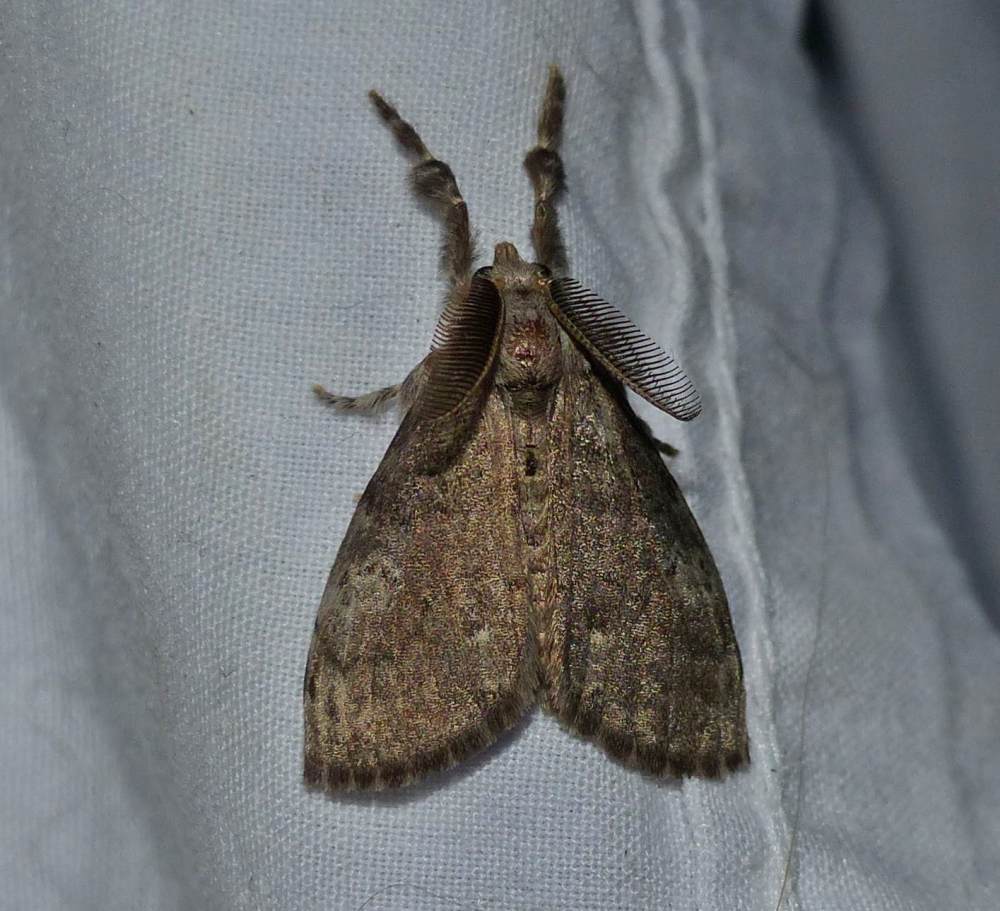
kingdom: Animalia
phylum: Arthropoda
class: Insecta
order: Lepidoptera
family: Erebidae
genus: Orgyia
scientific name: Orgyia leucostigma
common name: White-marked tussock moth
